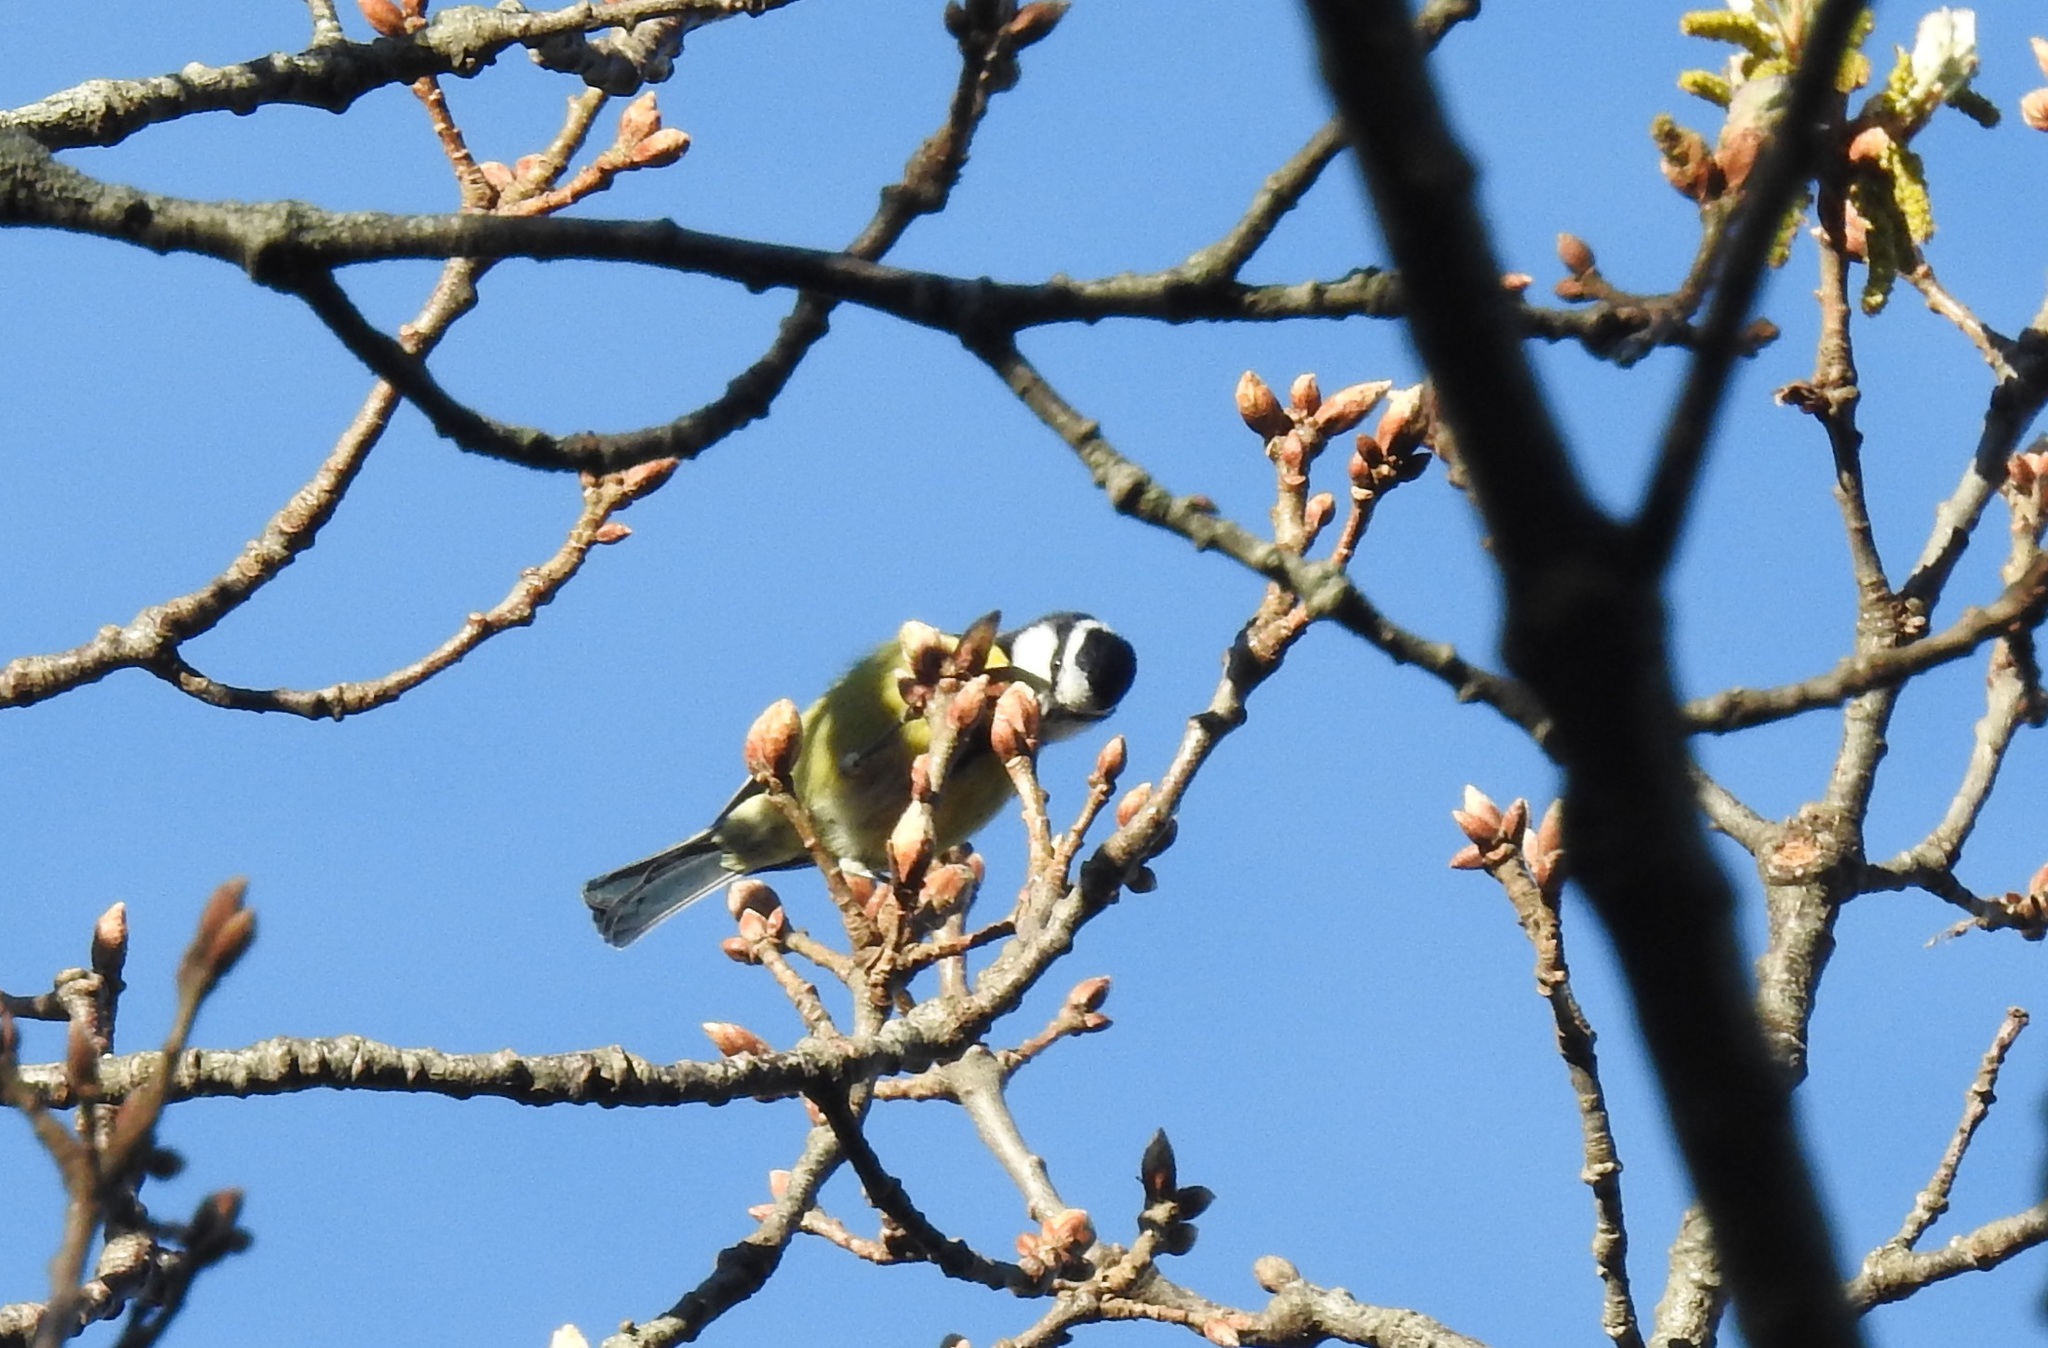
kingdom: Animalia
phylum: Chordata
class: Aves
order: Passeriformes
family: Paridae
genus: Cyanistes
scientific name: Cyanistes teneriffae
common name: African blue tit
